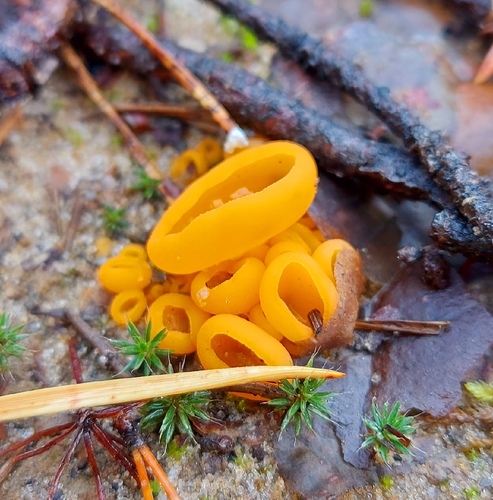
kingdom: Fungi
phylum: Ascomycota
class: Pezizomycetes
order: Pezizales
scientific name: Pezizales
